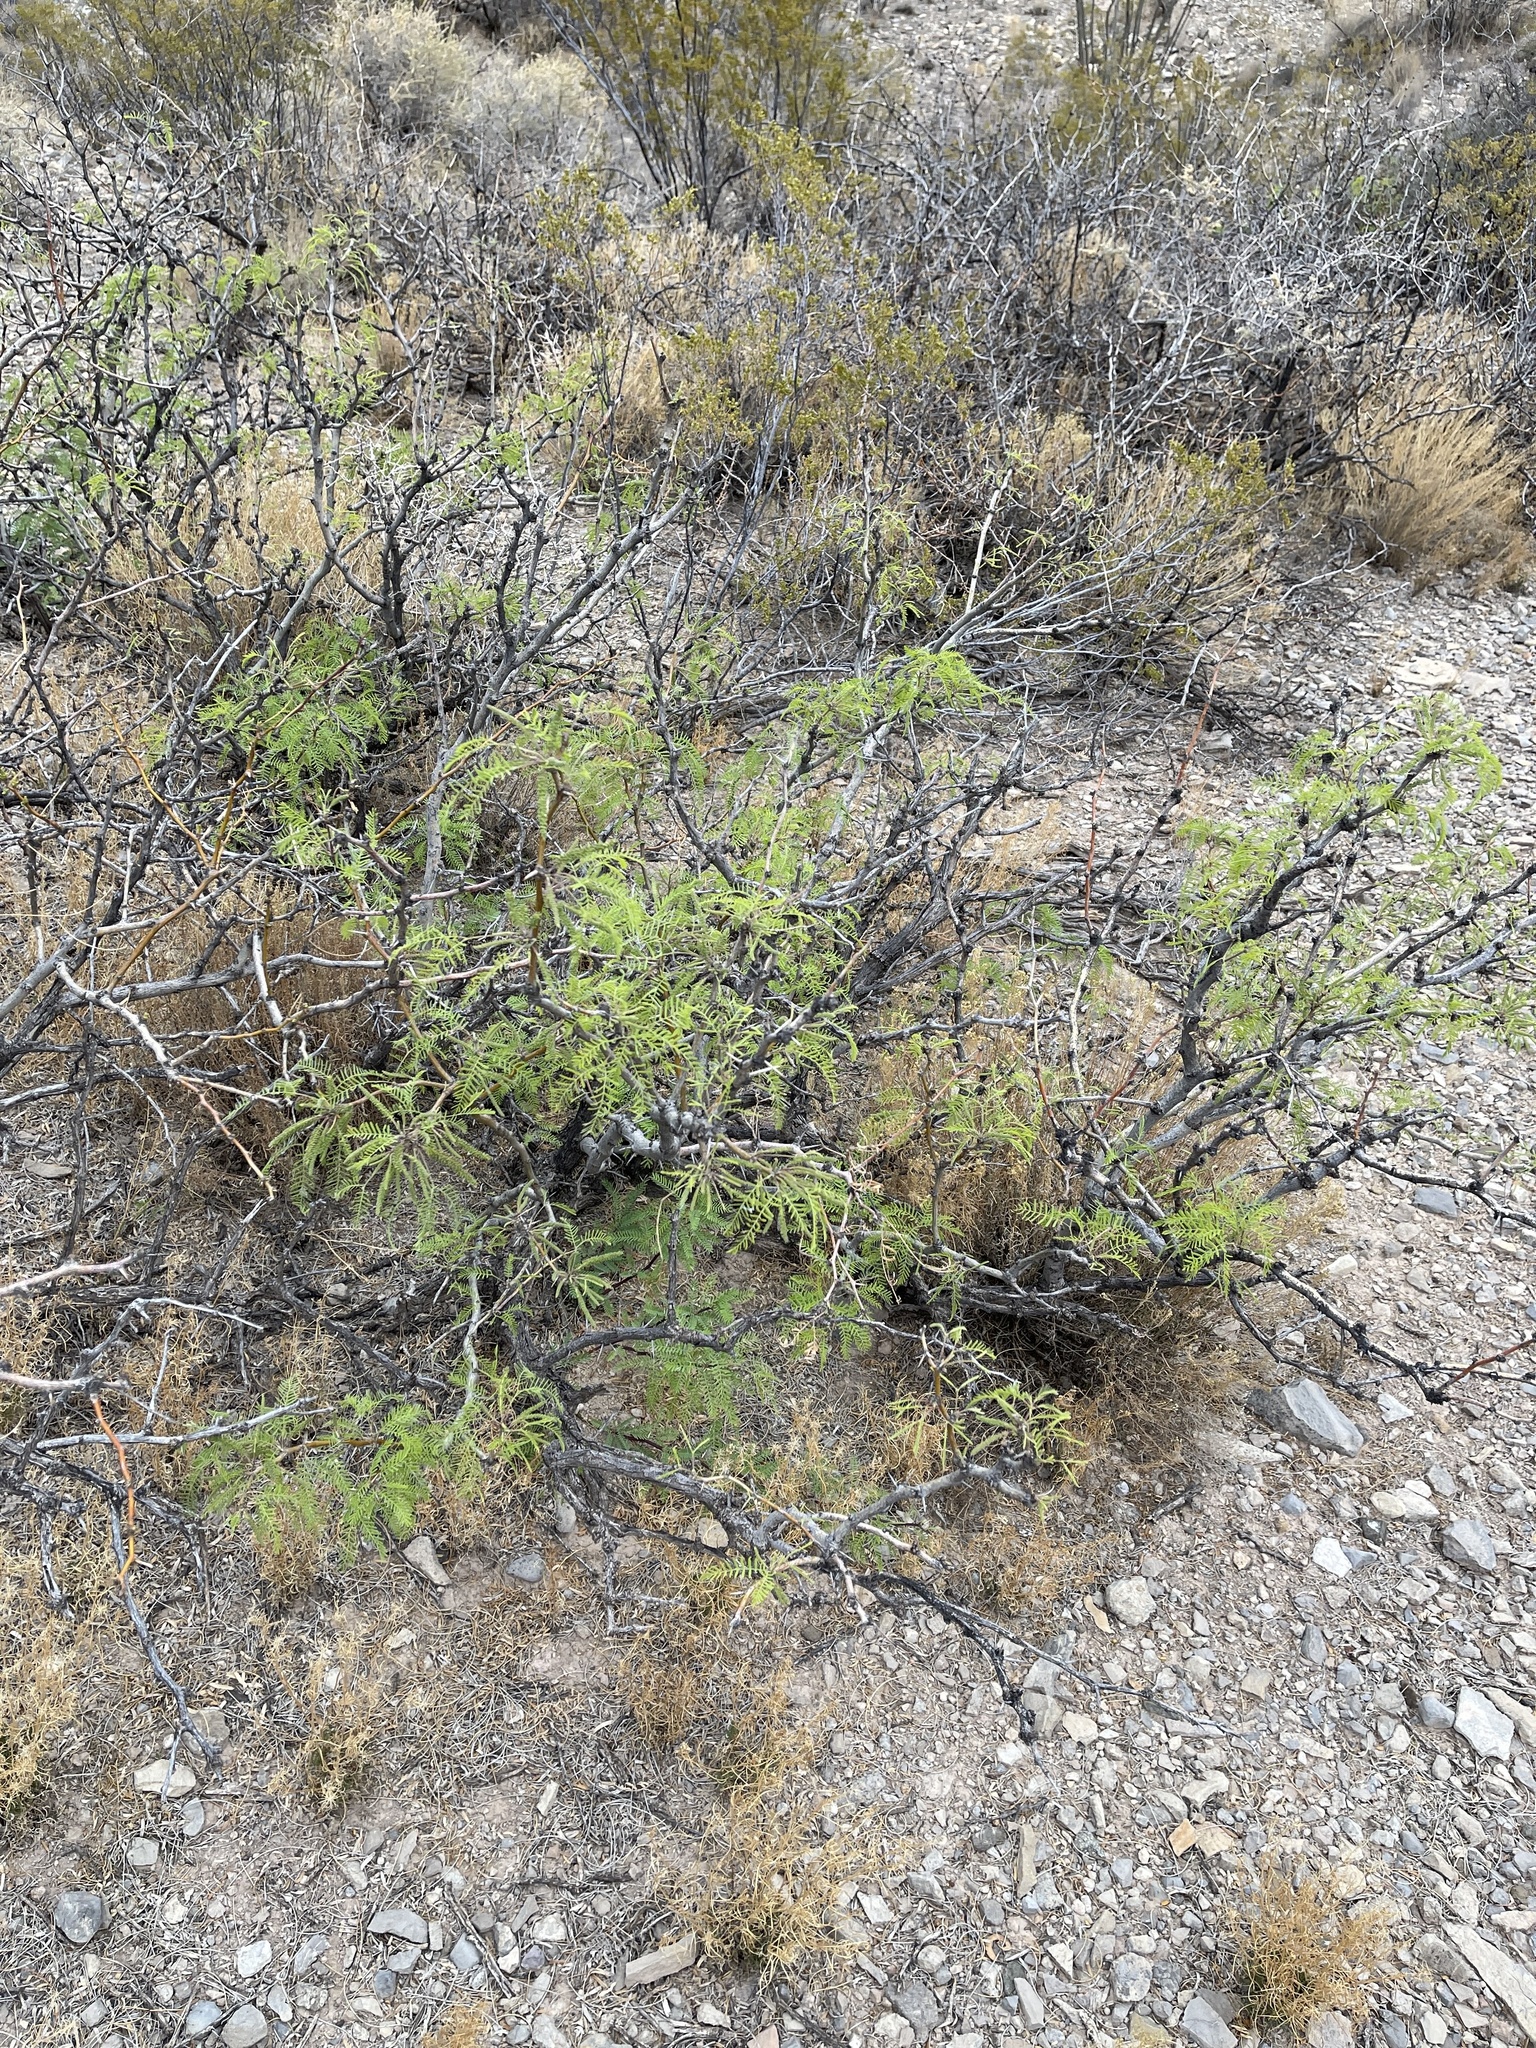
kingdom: Plantae
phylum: Tracheophyta
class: Magnoliopsida
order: Fabales
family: Fabaceae
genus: Prosopis
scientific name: Prosopis glandulosa
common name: Honey mesquite
